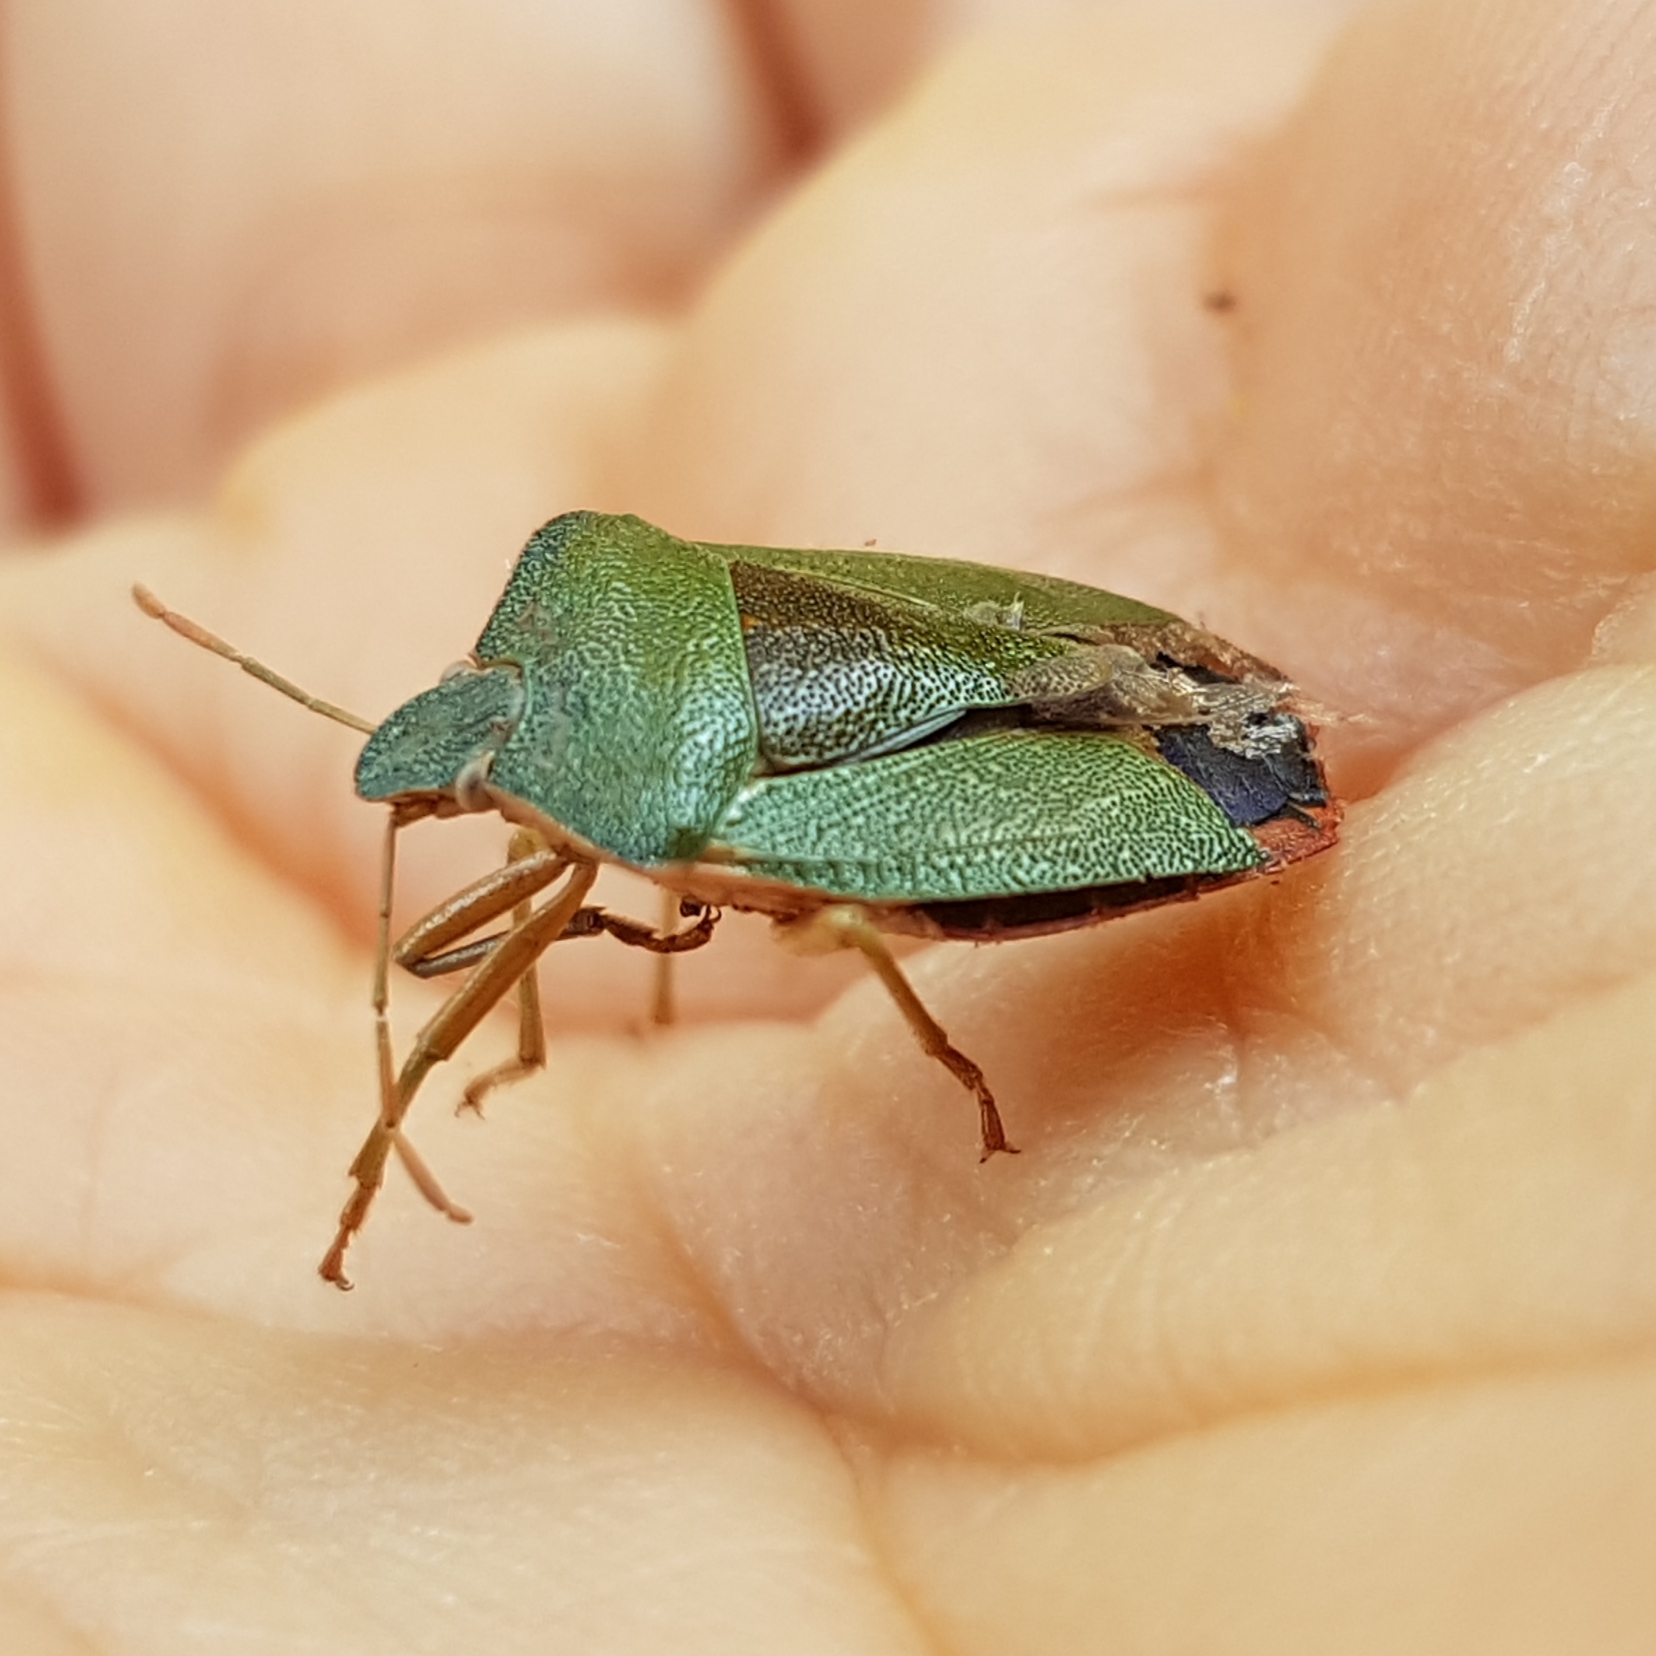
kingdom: Animalia
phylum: Arthropoda
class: Insecta
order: Hemiptera
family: Pentatomidae
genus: Palomena
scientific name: Palomena prasina
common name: Green shieldbug
